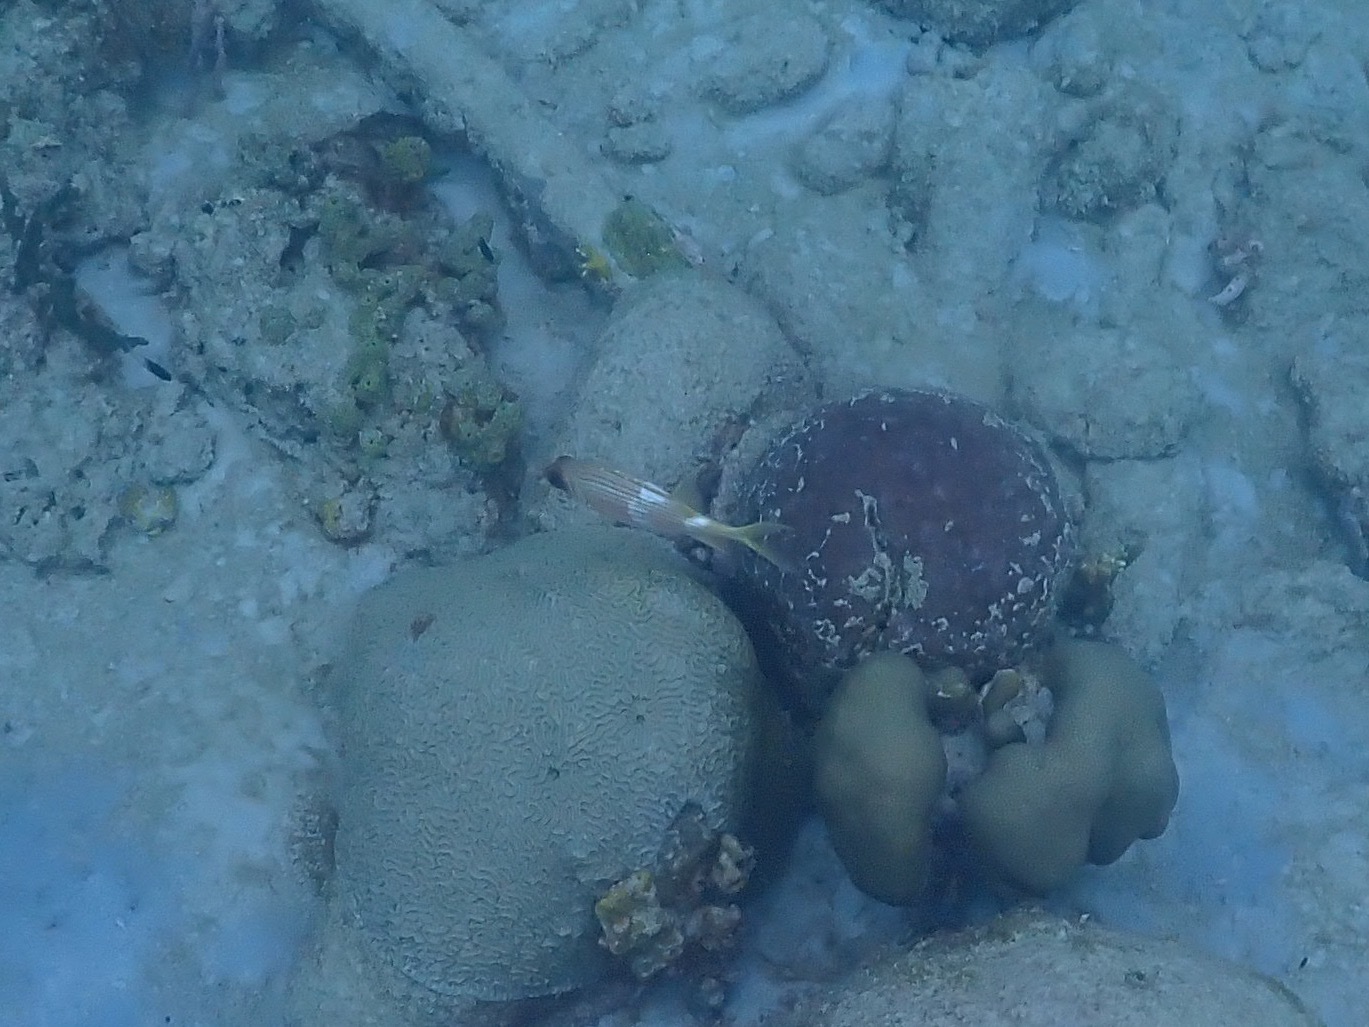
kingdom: Animalia
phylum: Chordata
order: Beryciformes
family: Holocentridae
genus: Holocentrus
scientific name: Holocentrus rufus
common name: Longspine squirrelfish
